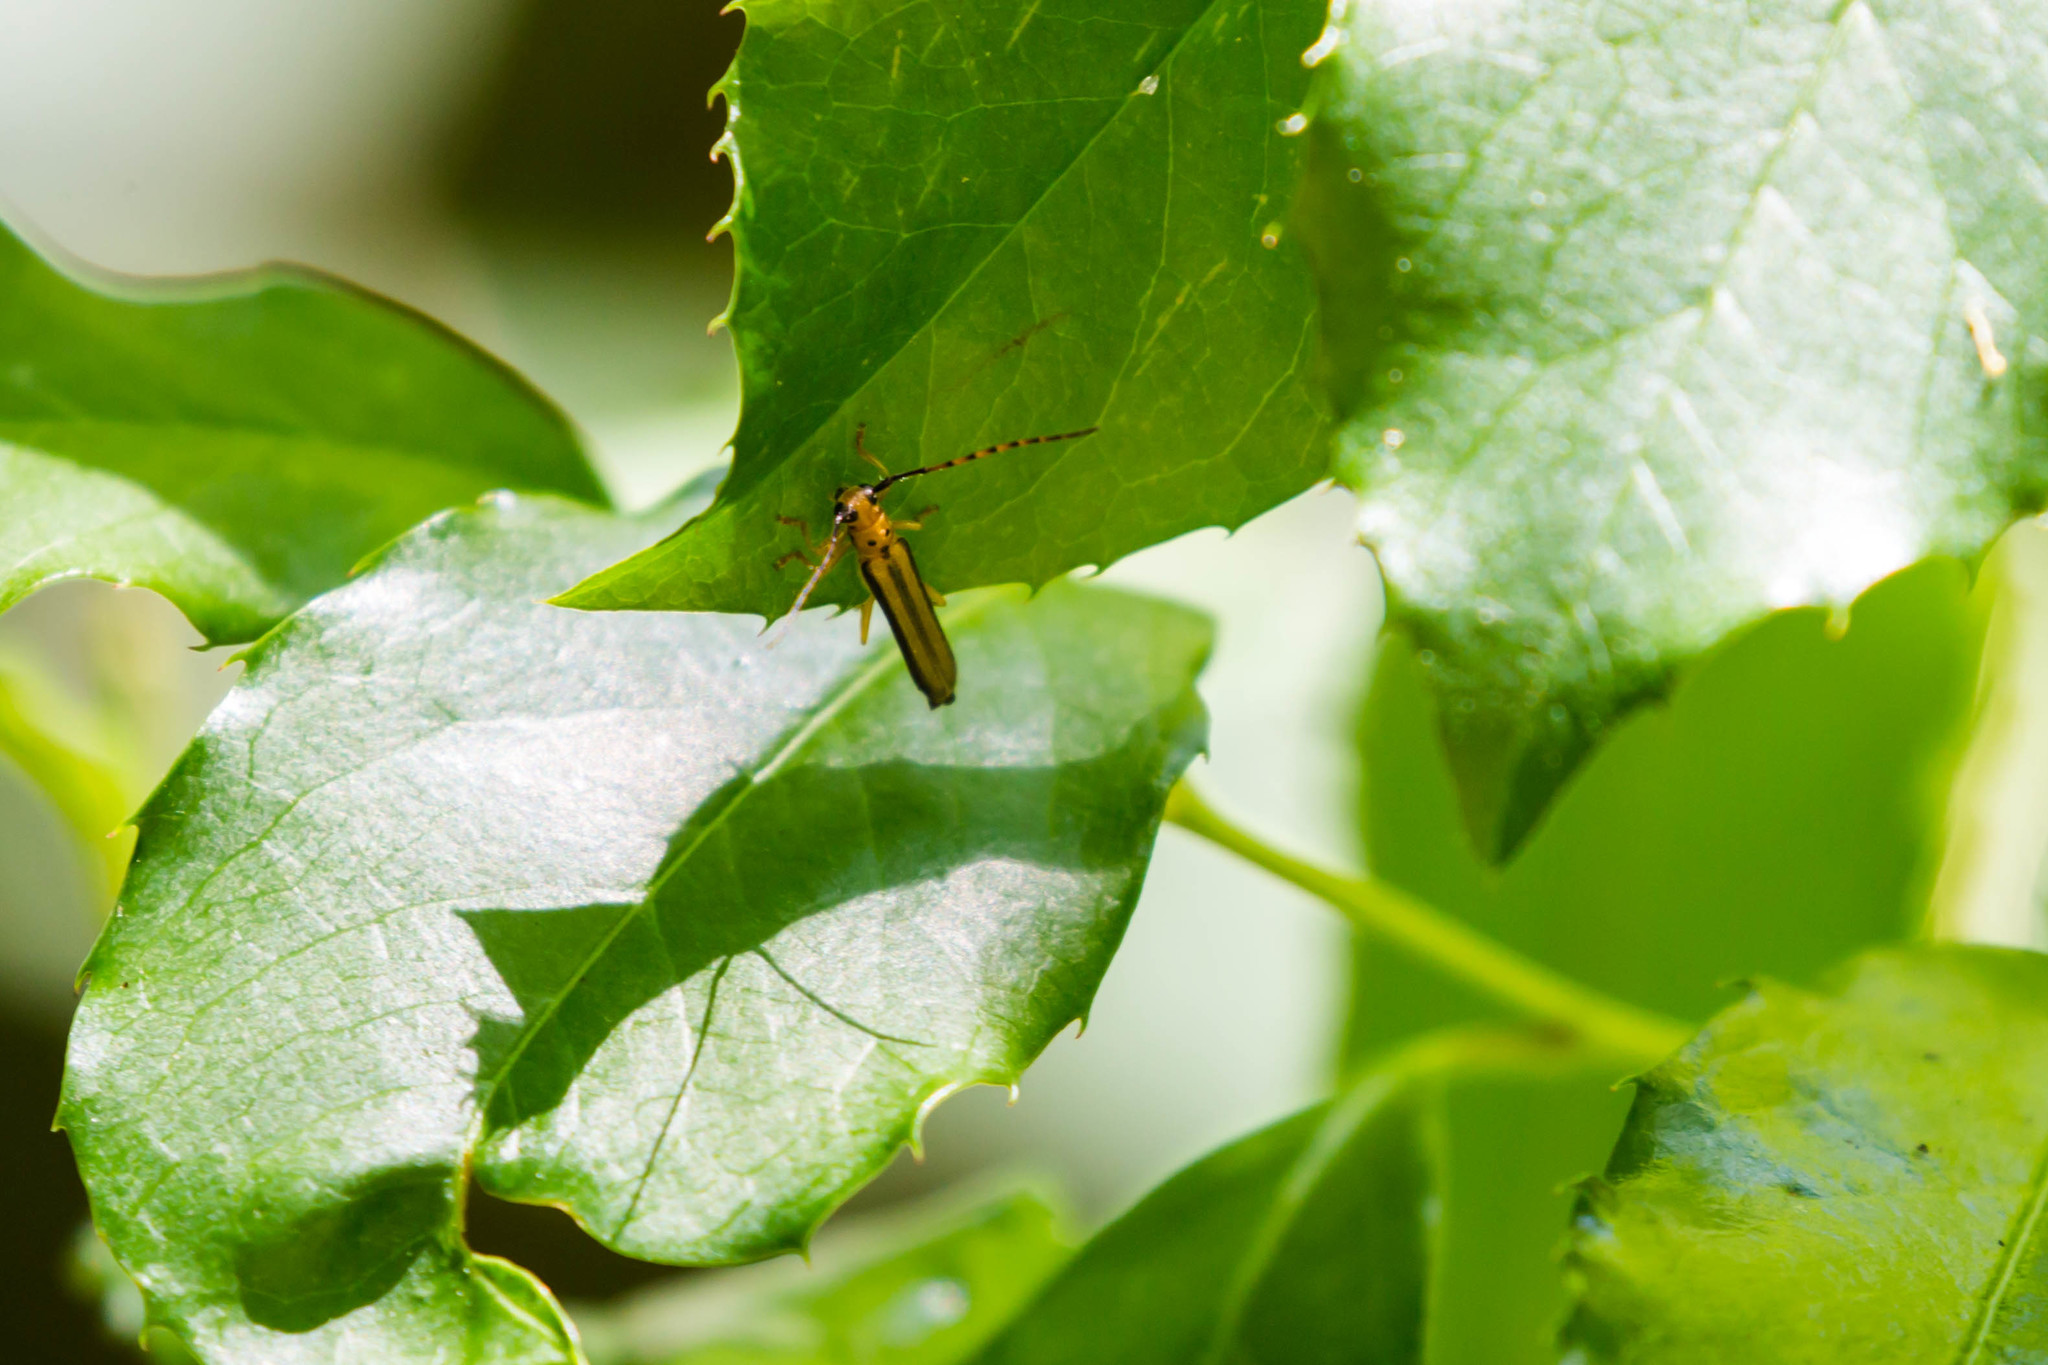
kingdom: Animalia
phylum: Arthropoda
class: Insecta
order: Coleoptera
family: Cerambycidae
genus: Oberea
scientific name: Oberea tripunctata
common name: Dogwood twig borer
